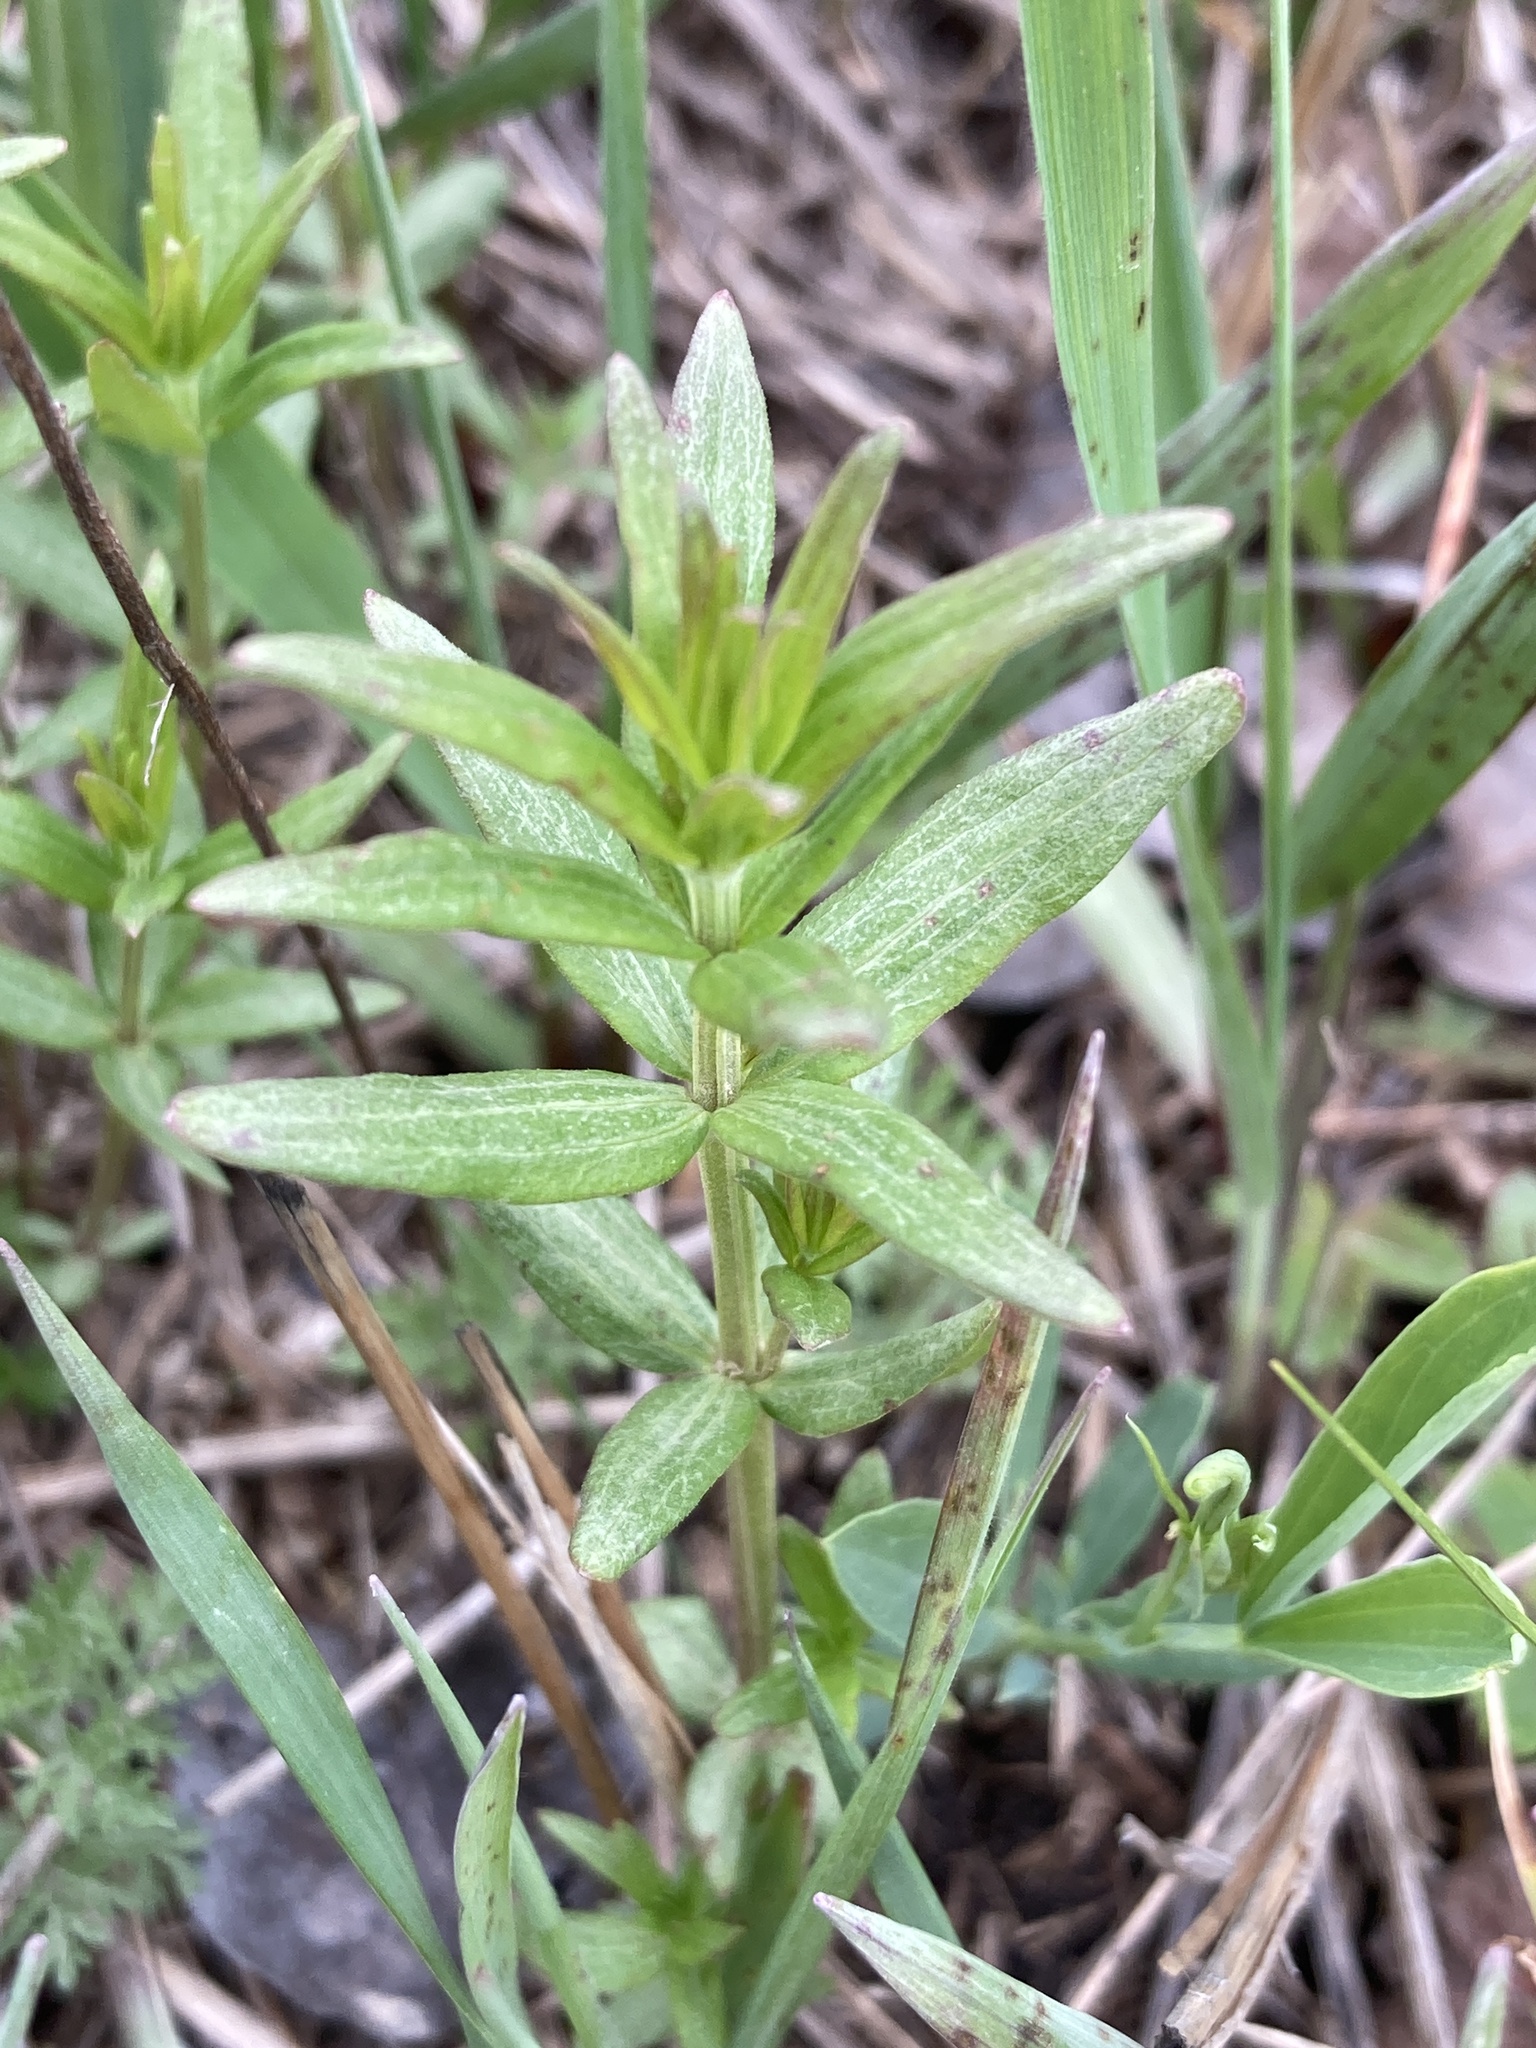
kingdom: Plantae
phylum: Tracheophyta
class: Magnoliopsida
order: Gentianales
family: Rubiaceae
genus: Galium
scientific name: Galium boreale
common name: Northern bedstraw
